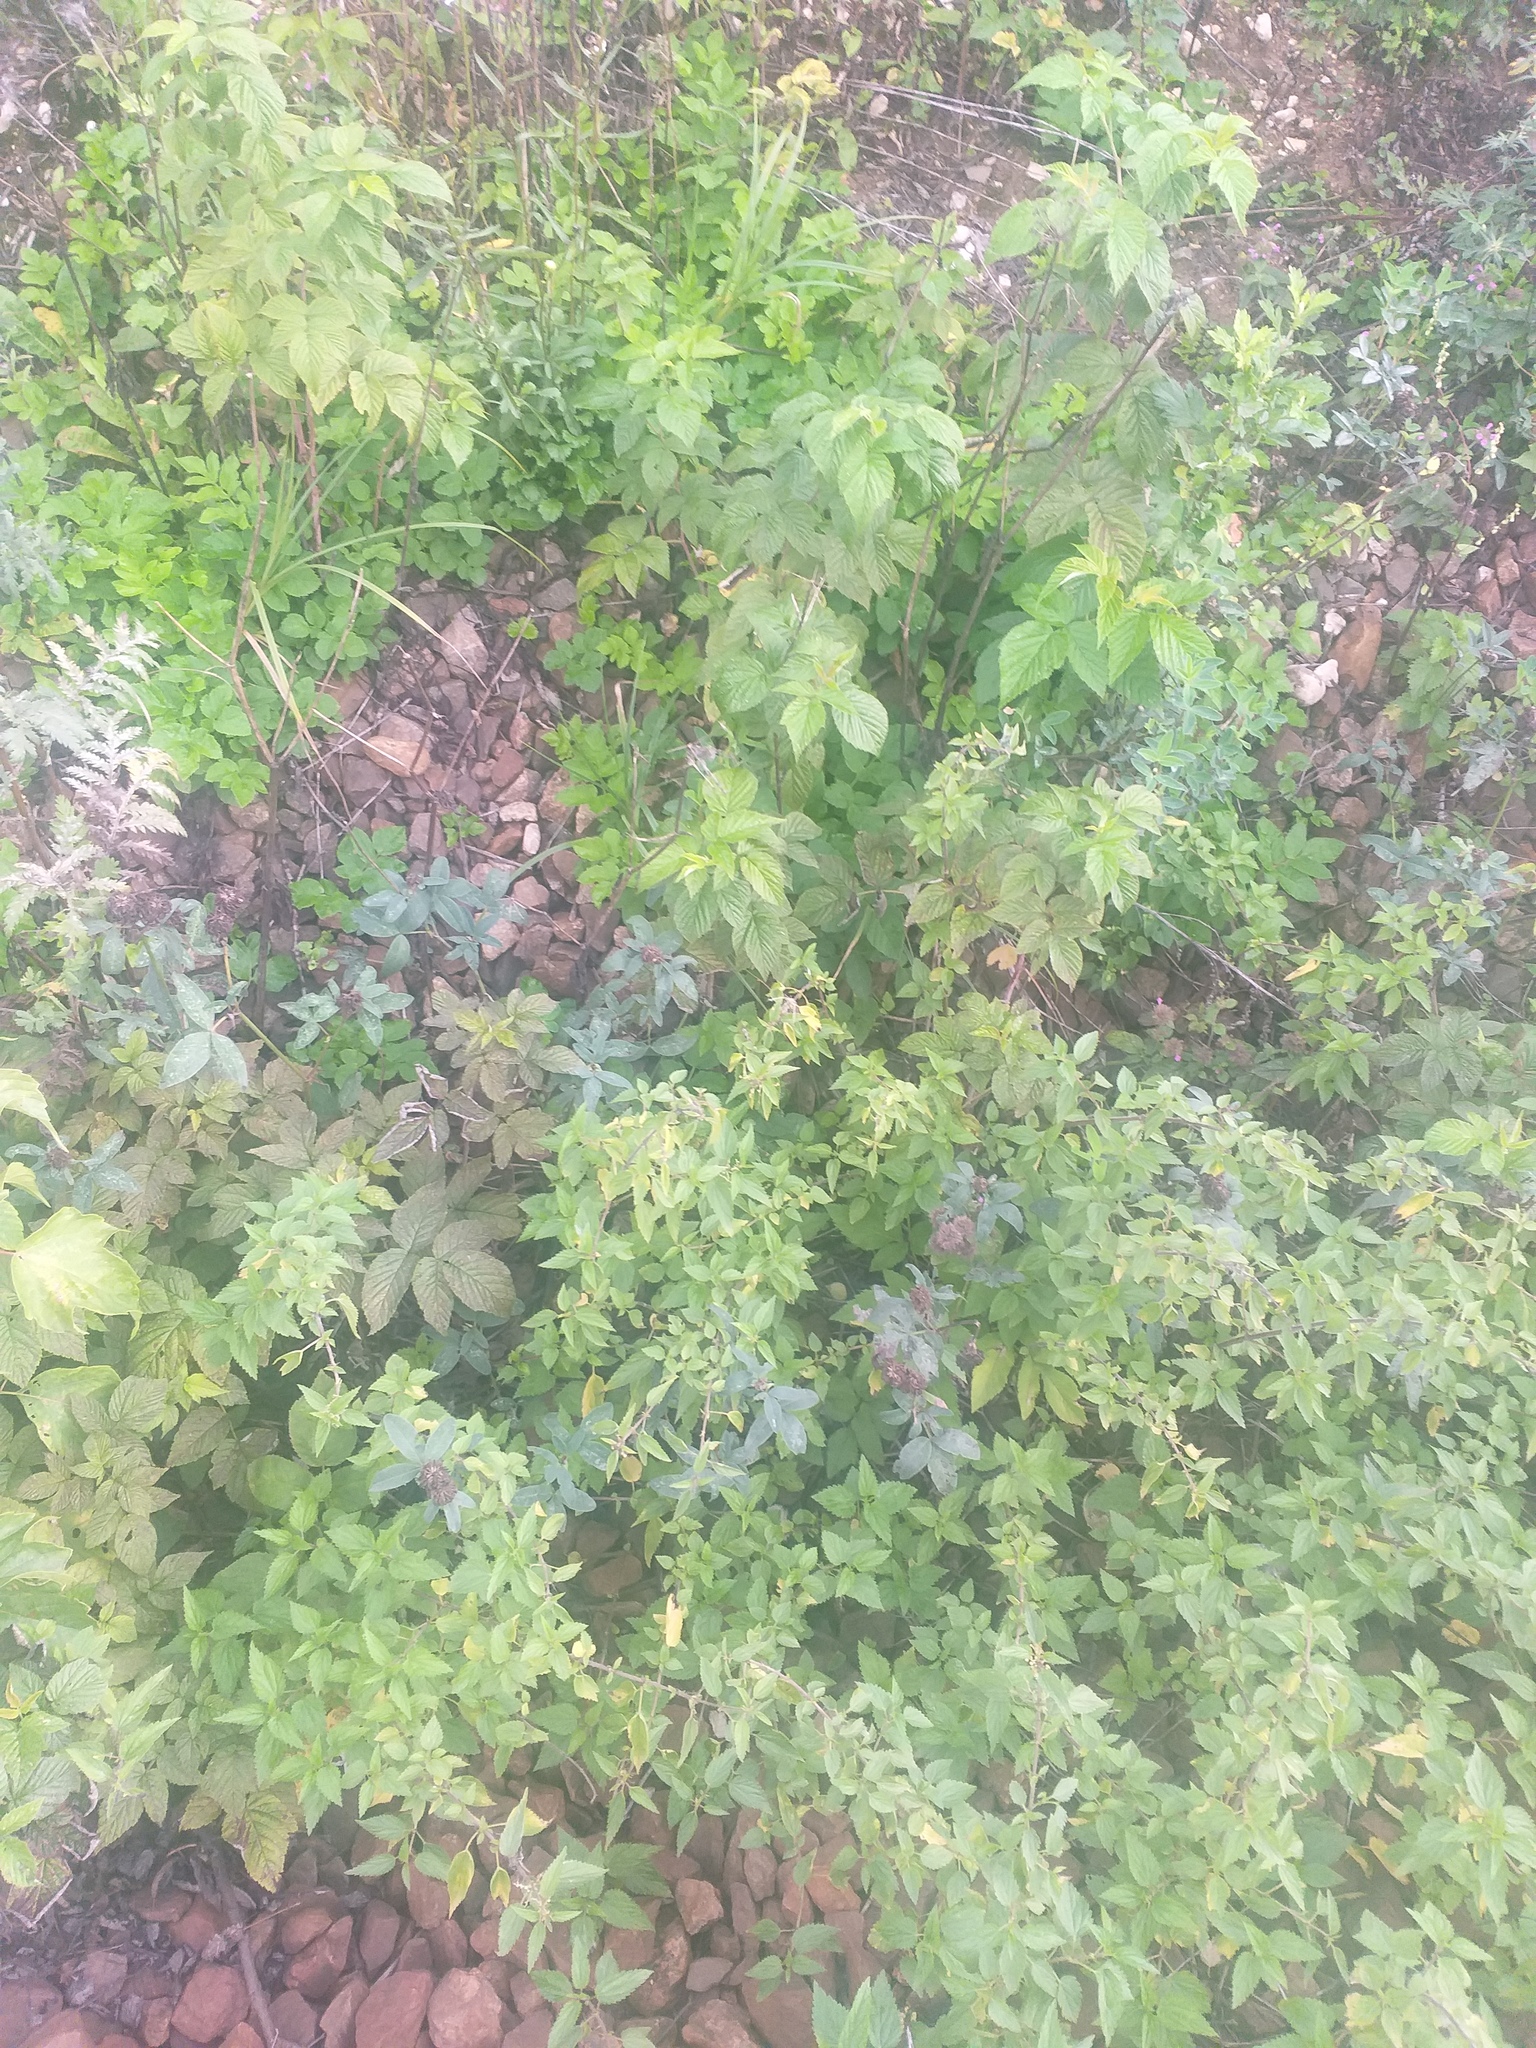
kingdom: Plantae
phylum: Tracheophyta
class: Magnoliopsida
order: Fabales
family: Fabaceae
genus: Trifolium
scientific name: Trifolium medium
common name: Zigzag clover
